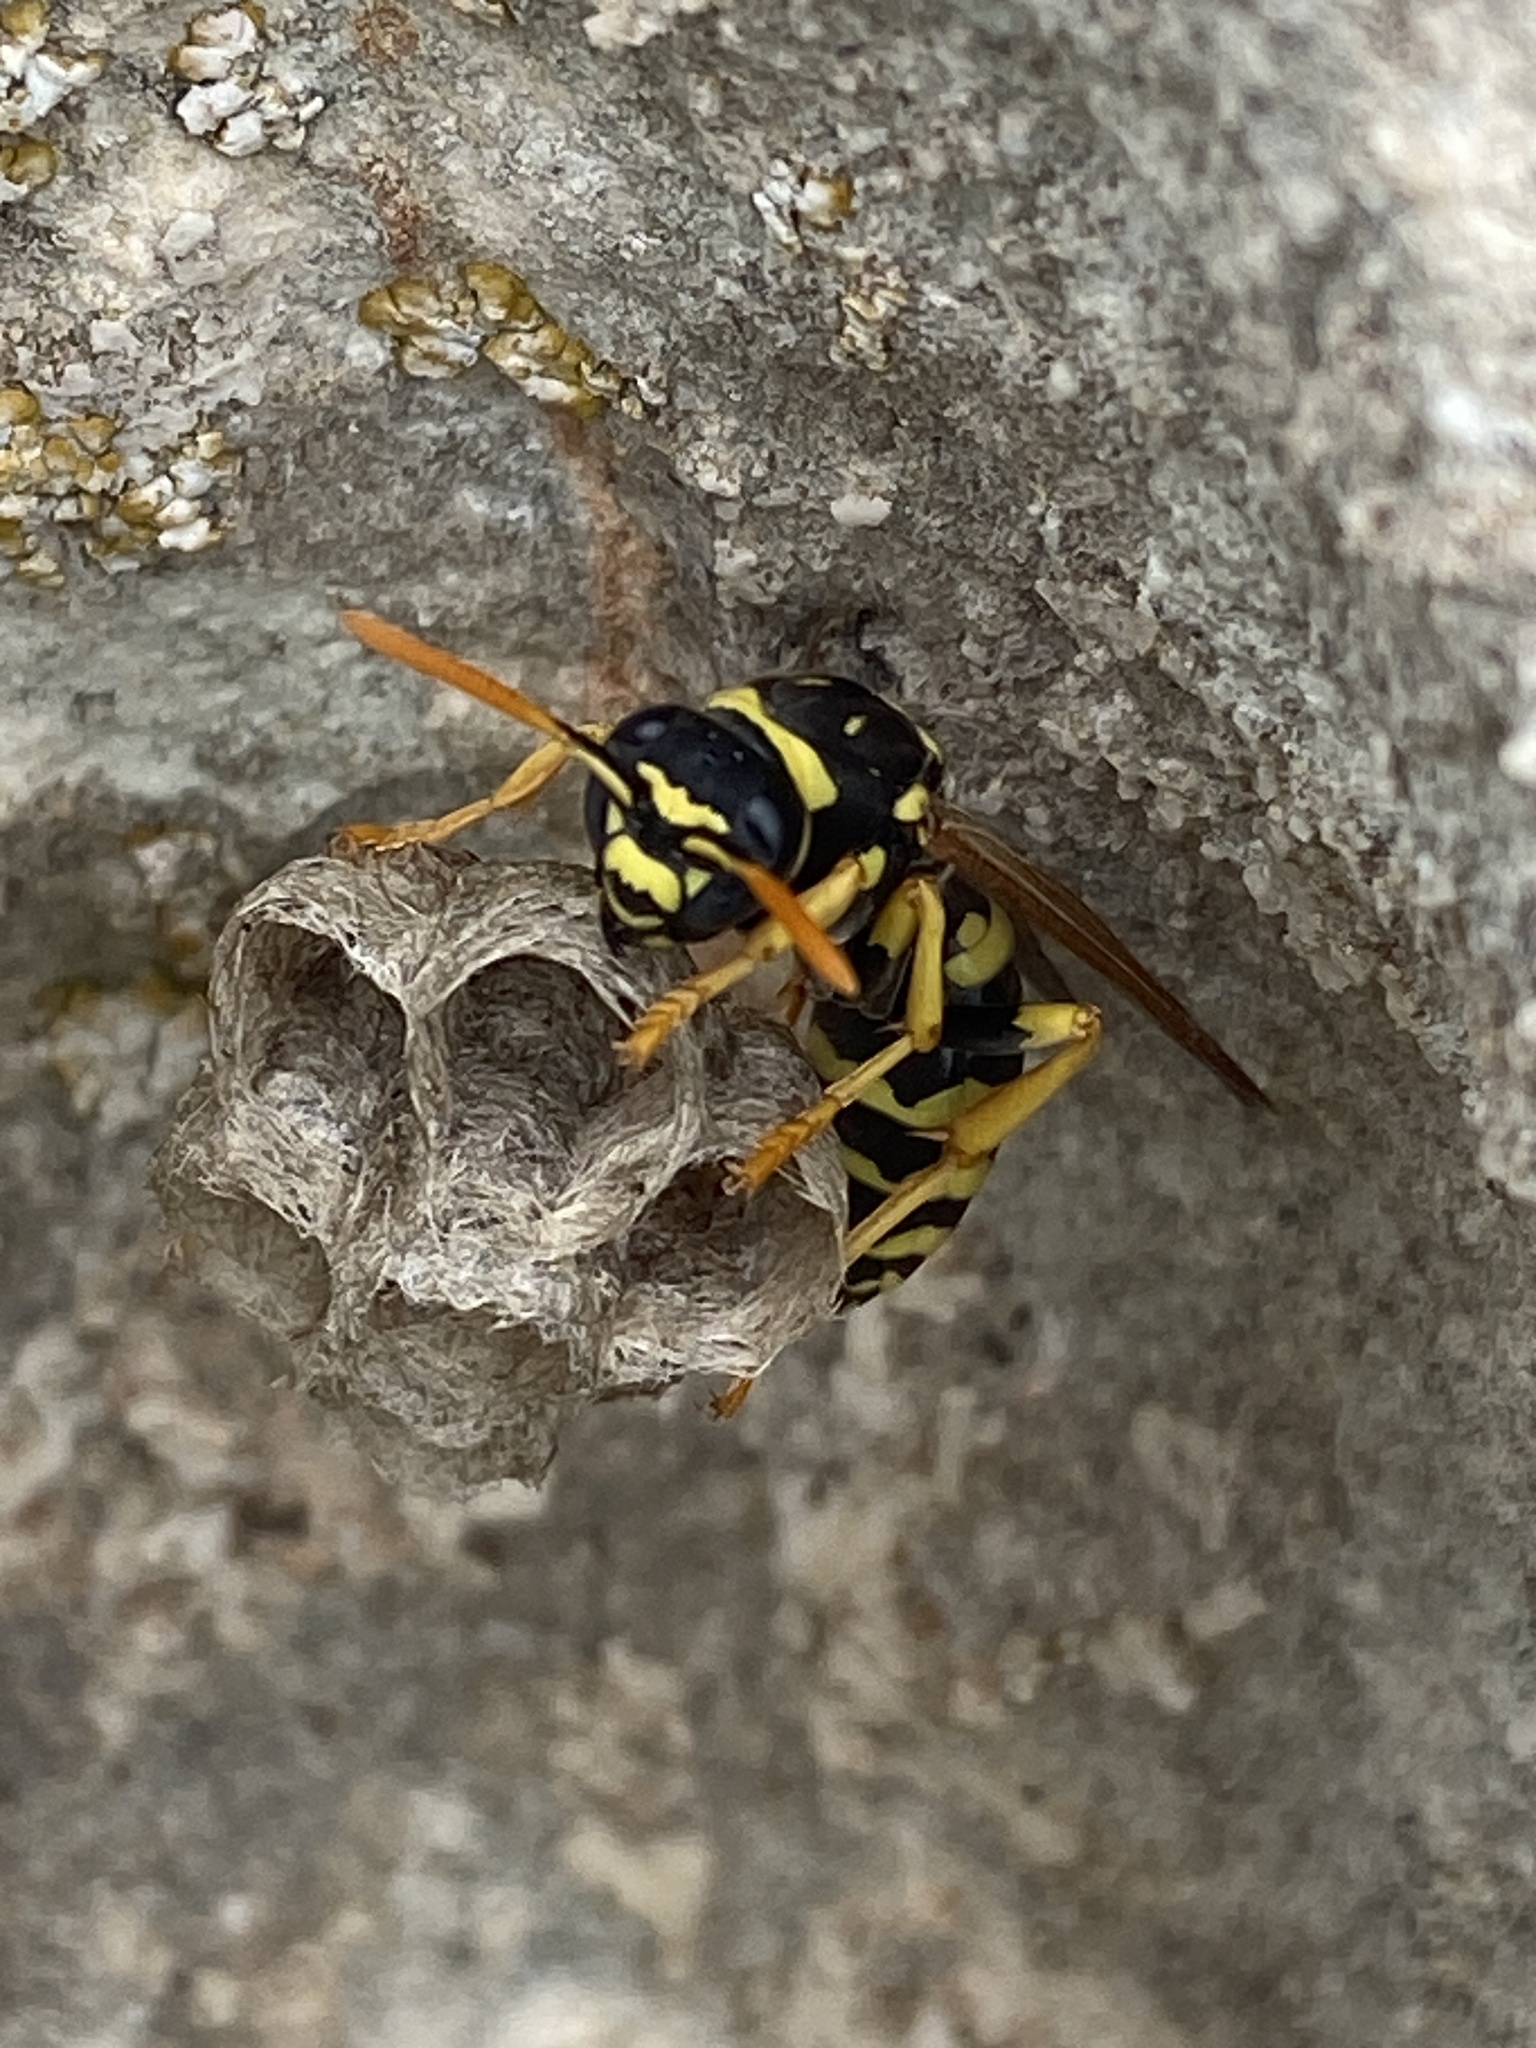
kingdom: Animalia
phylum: Arthropoda
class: Insecta
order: Hymenoptera
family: Eumenidae
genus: Polistes
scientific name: Polistes gallicus
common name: Paper wasp
